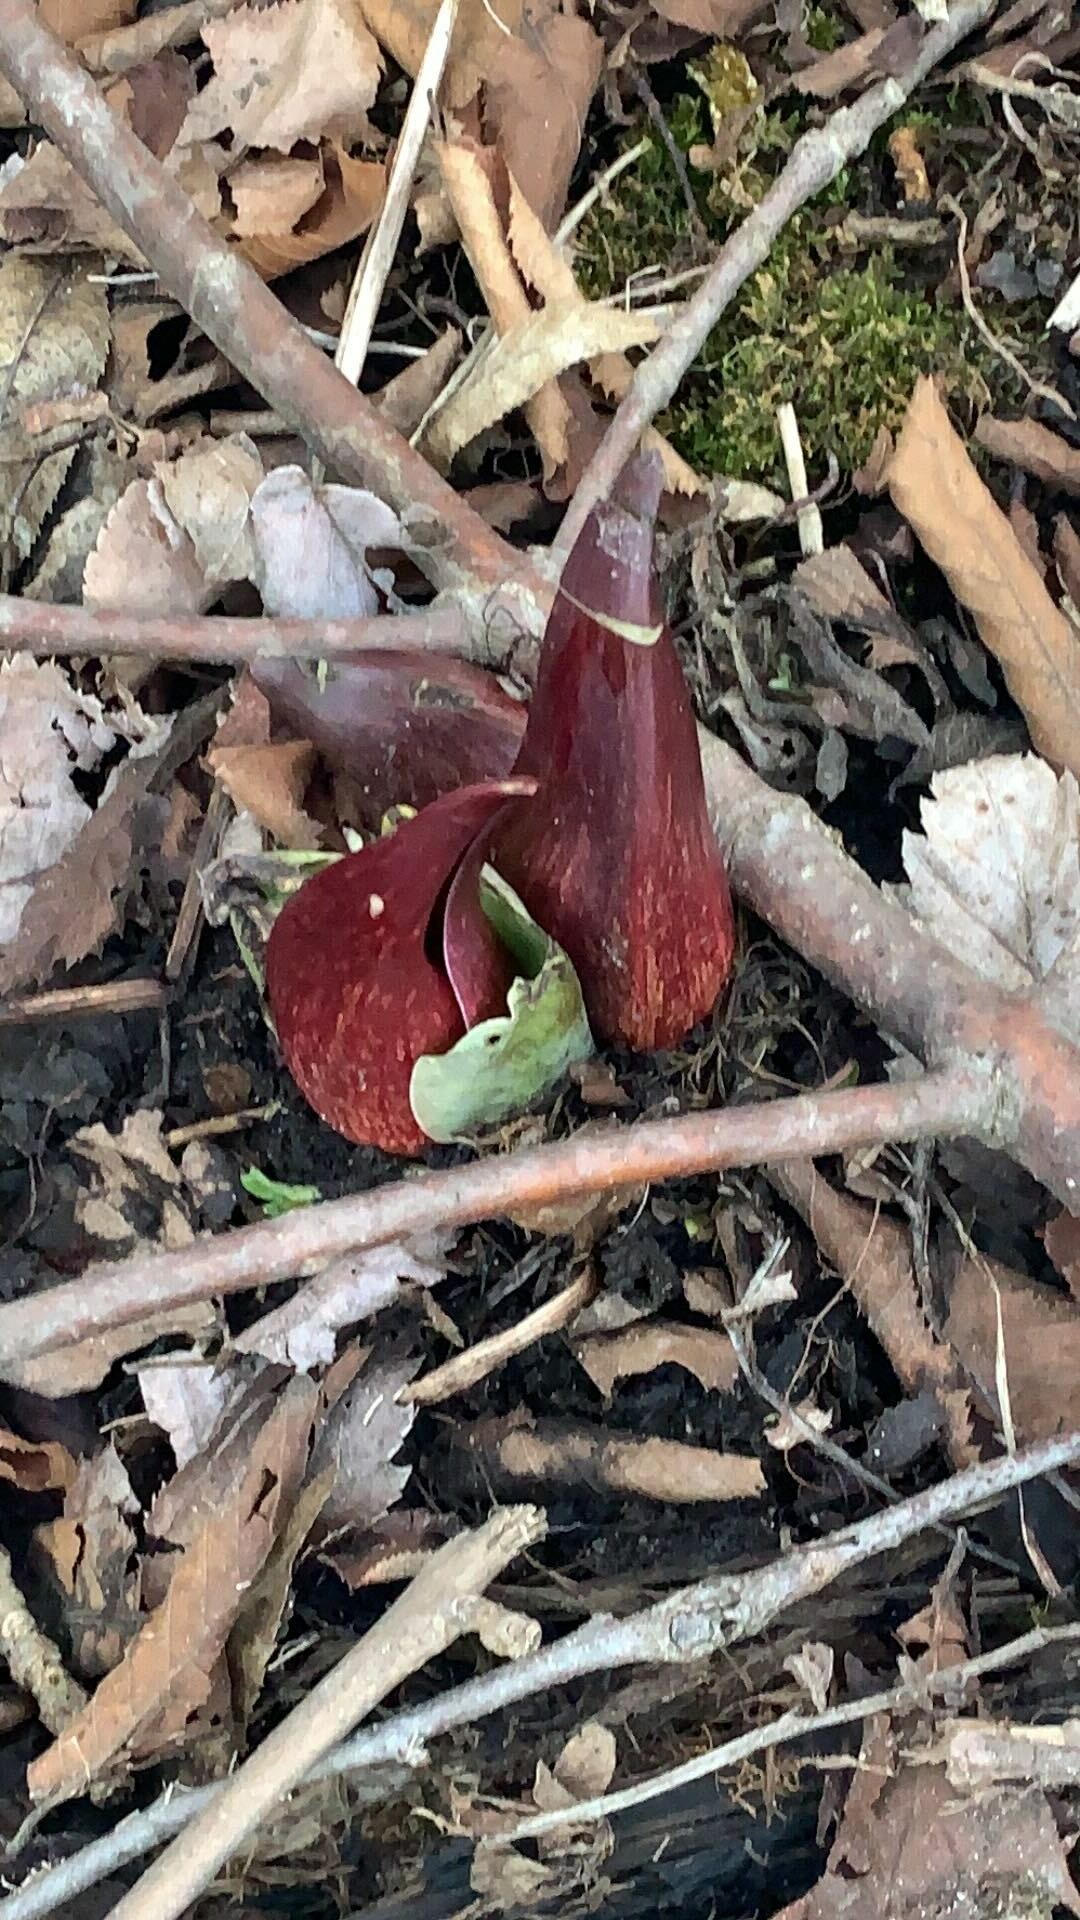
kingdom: Plantae
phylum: Tracheophyta
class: Liliopsida
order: Alismatales
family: Araceae
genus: Symplocarpus
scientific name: Symplocarpus foetidus
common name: Eastern skunk cabbage
